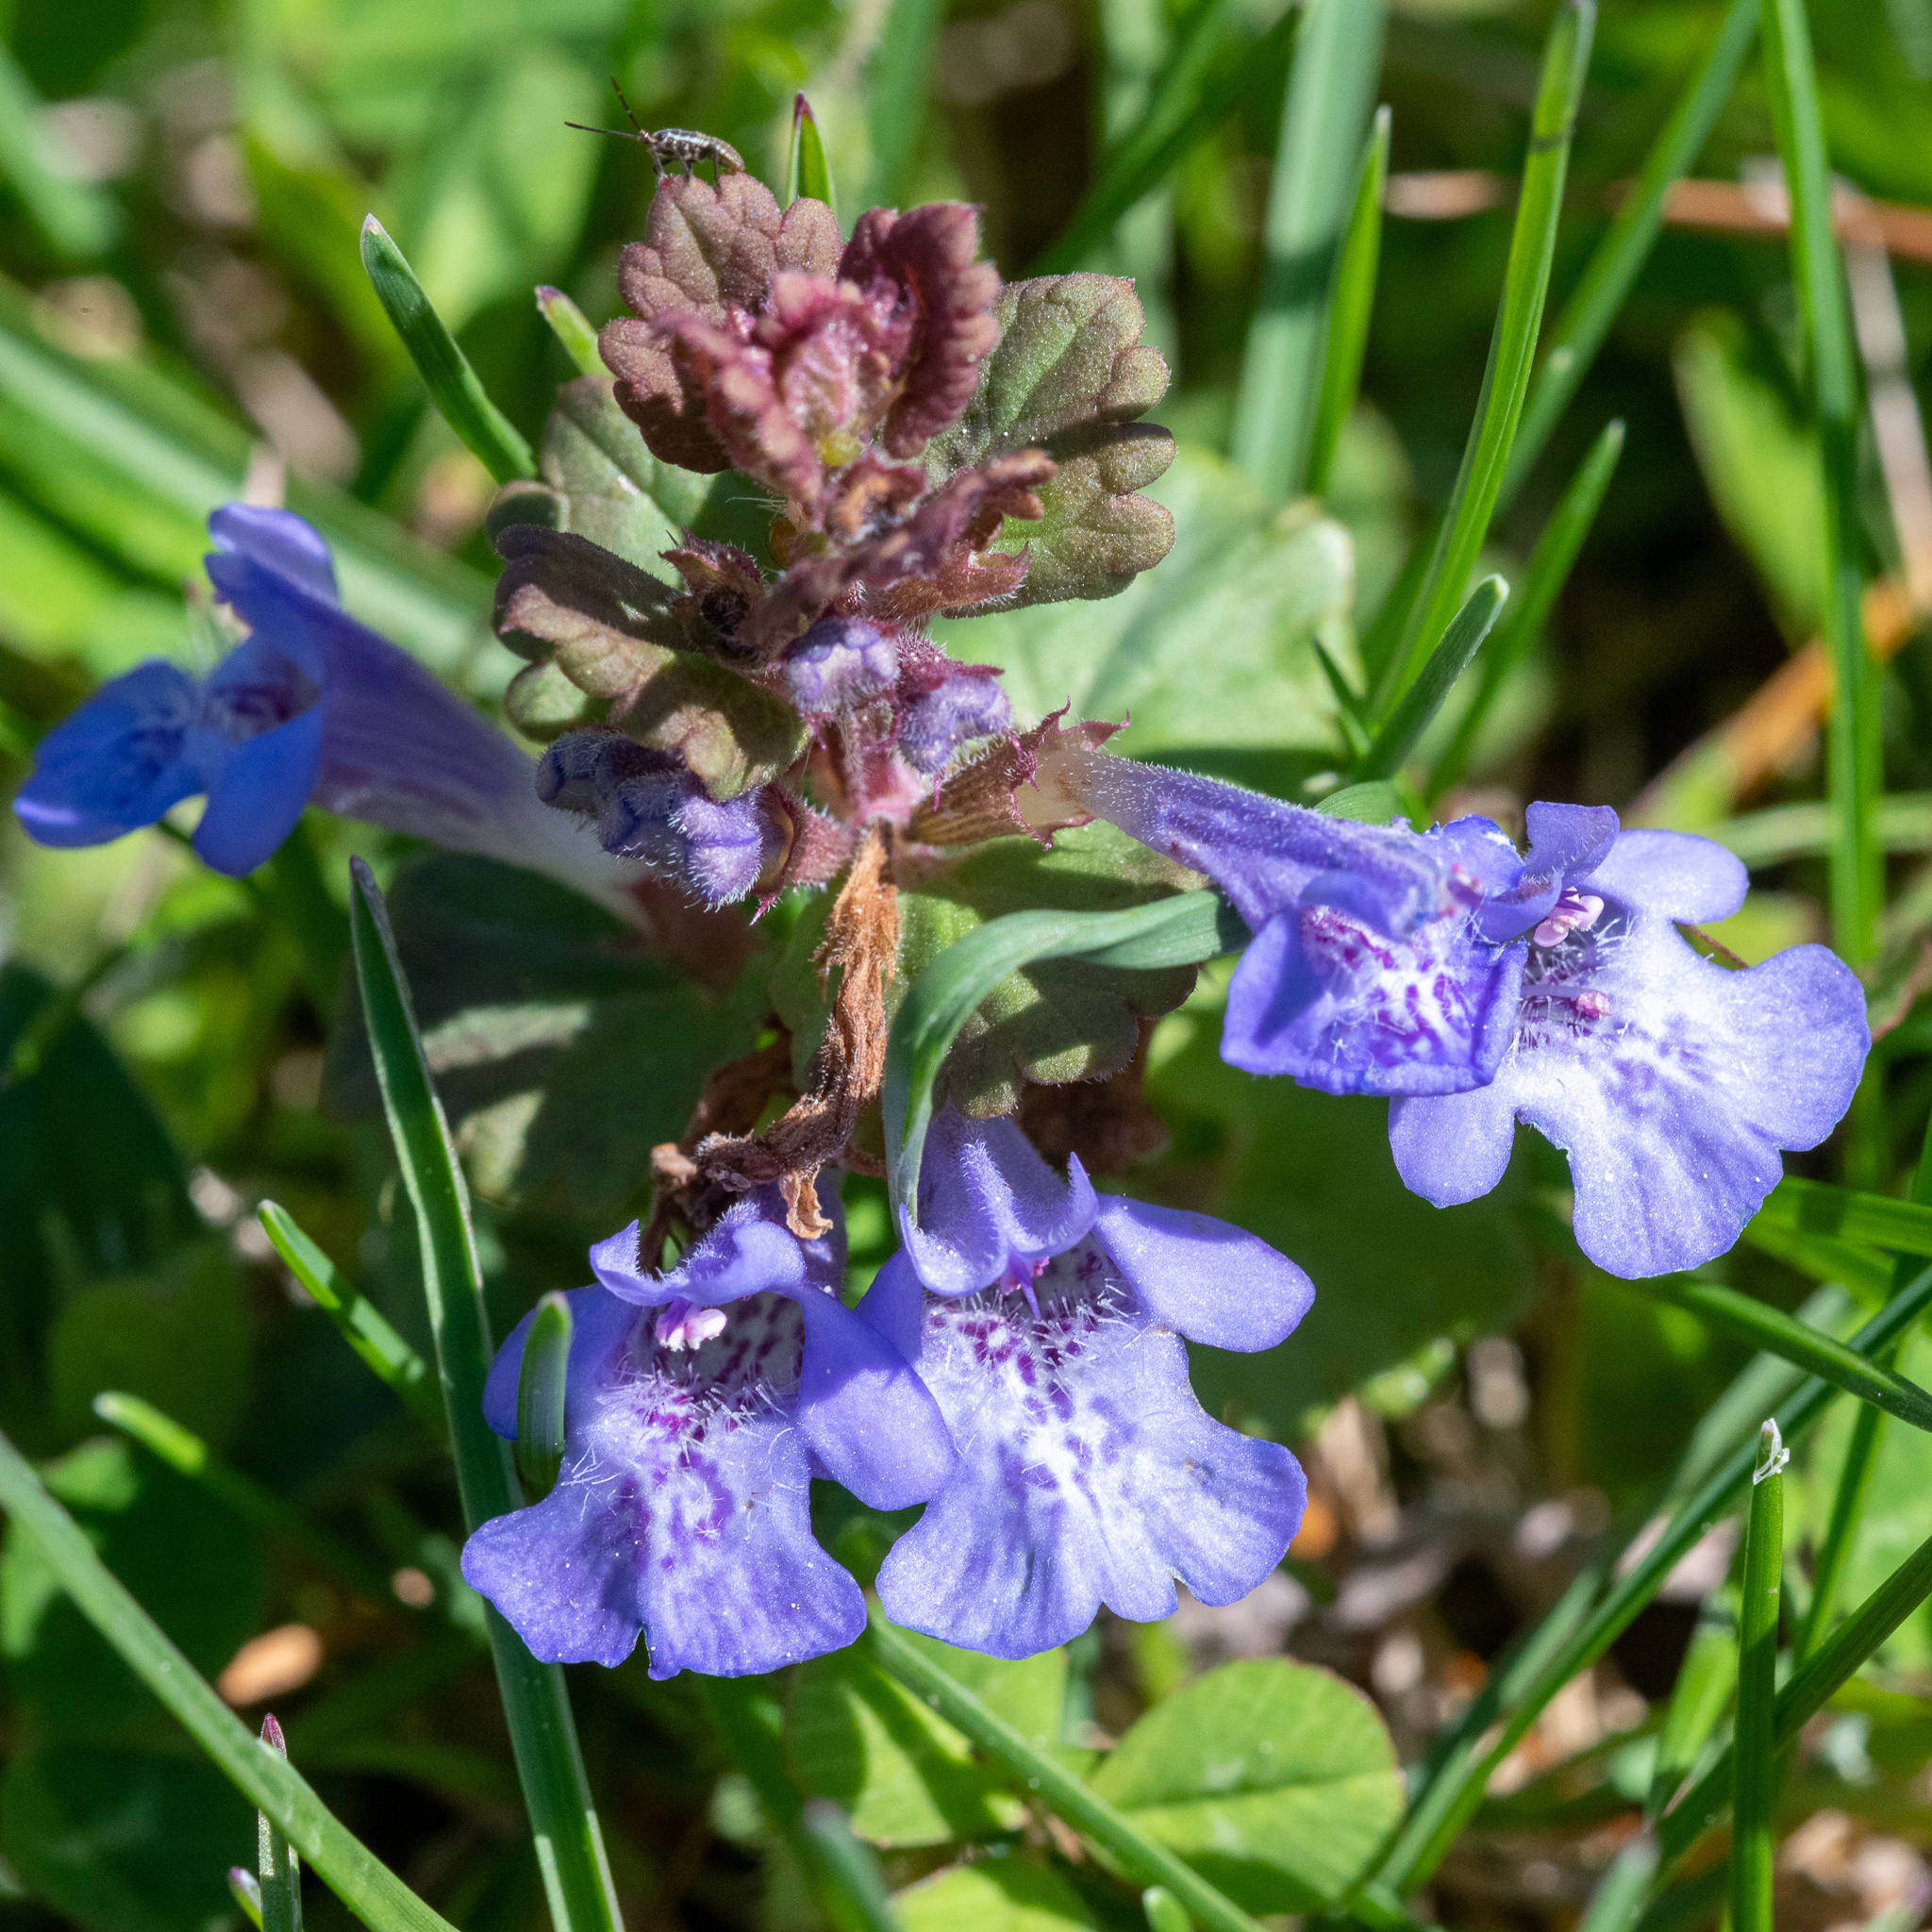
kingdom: Plantae
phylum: Tracheophyta
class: Magnoliopsida
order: Lamiales
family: Lamiaceae
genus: Glechoma
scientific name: Glechoma hederacea
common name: Ground ivy
